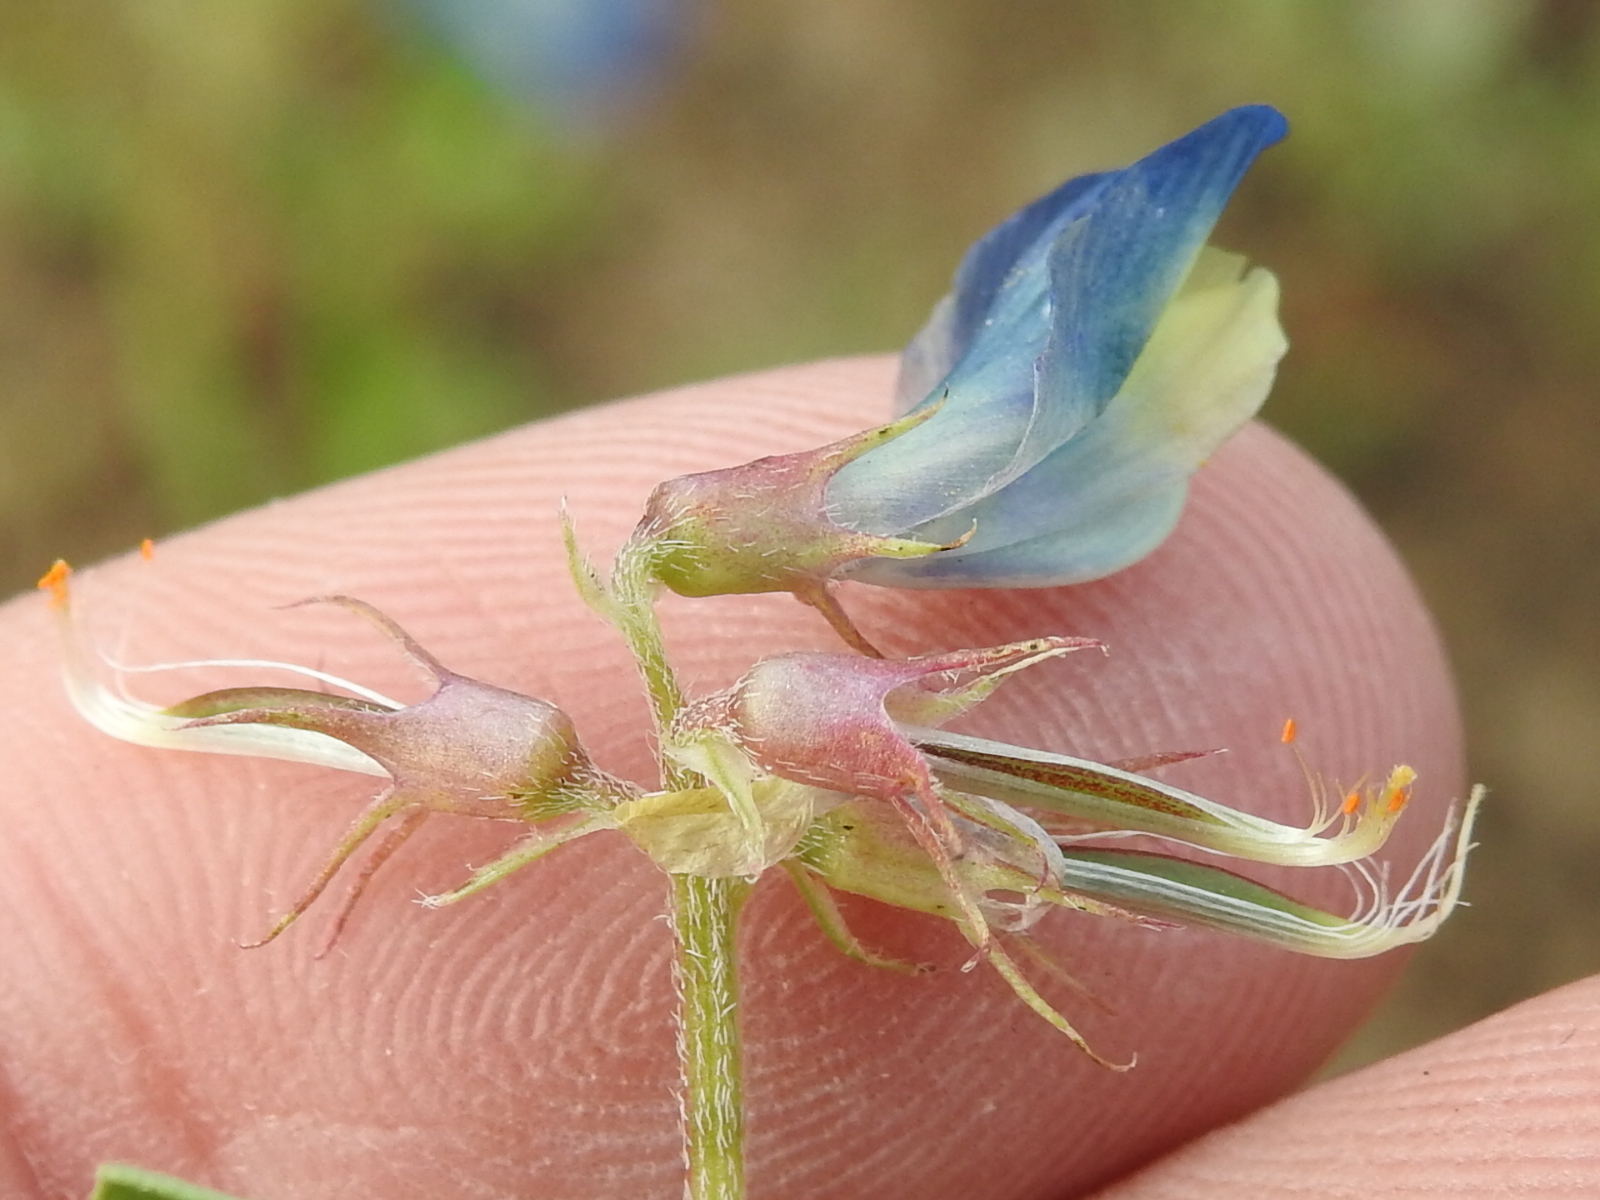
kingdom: Plantae
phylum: Tracheophyta
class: Magnoliopsida
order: Fabales
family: Fabaceae
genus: Astragalus
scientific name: Astragalus lindheimeri
